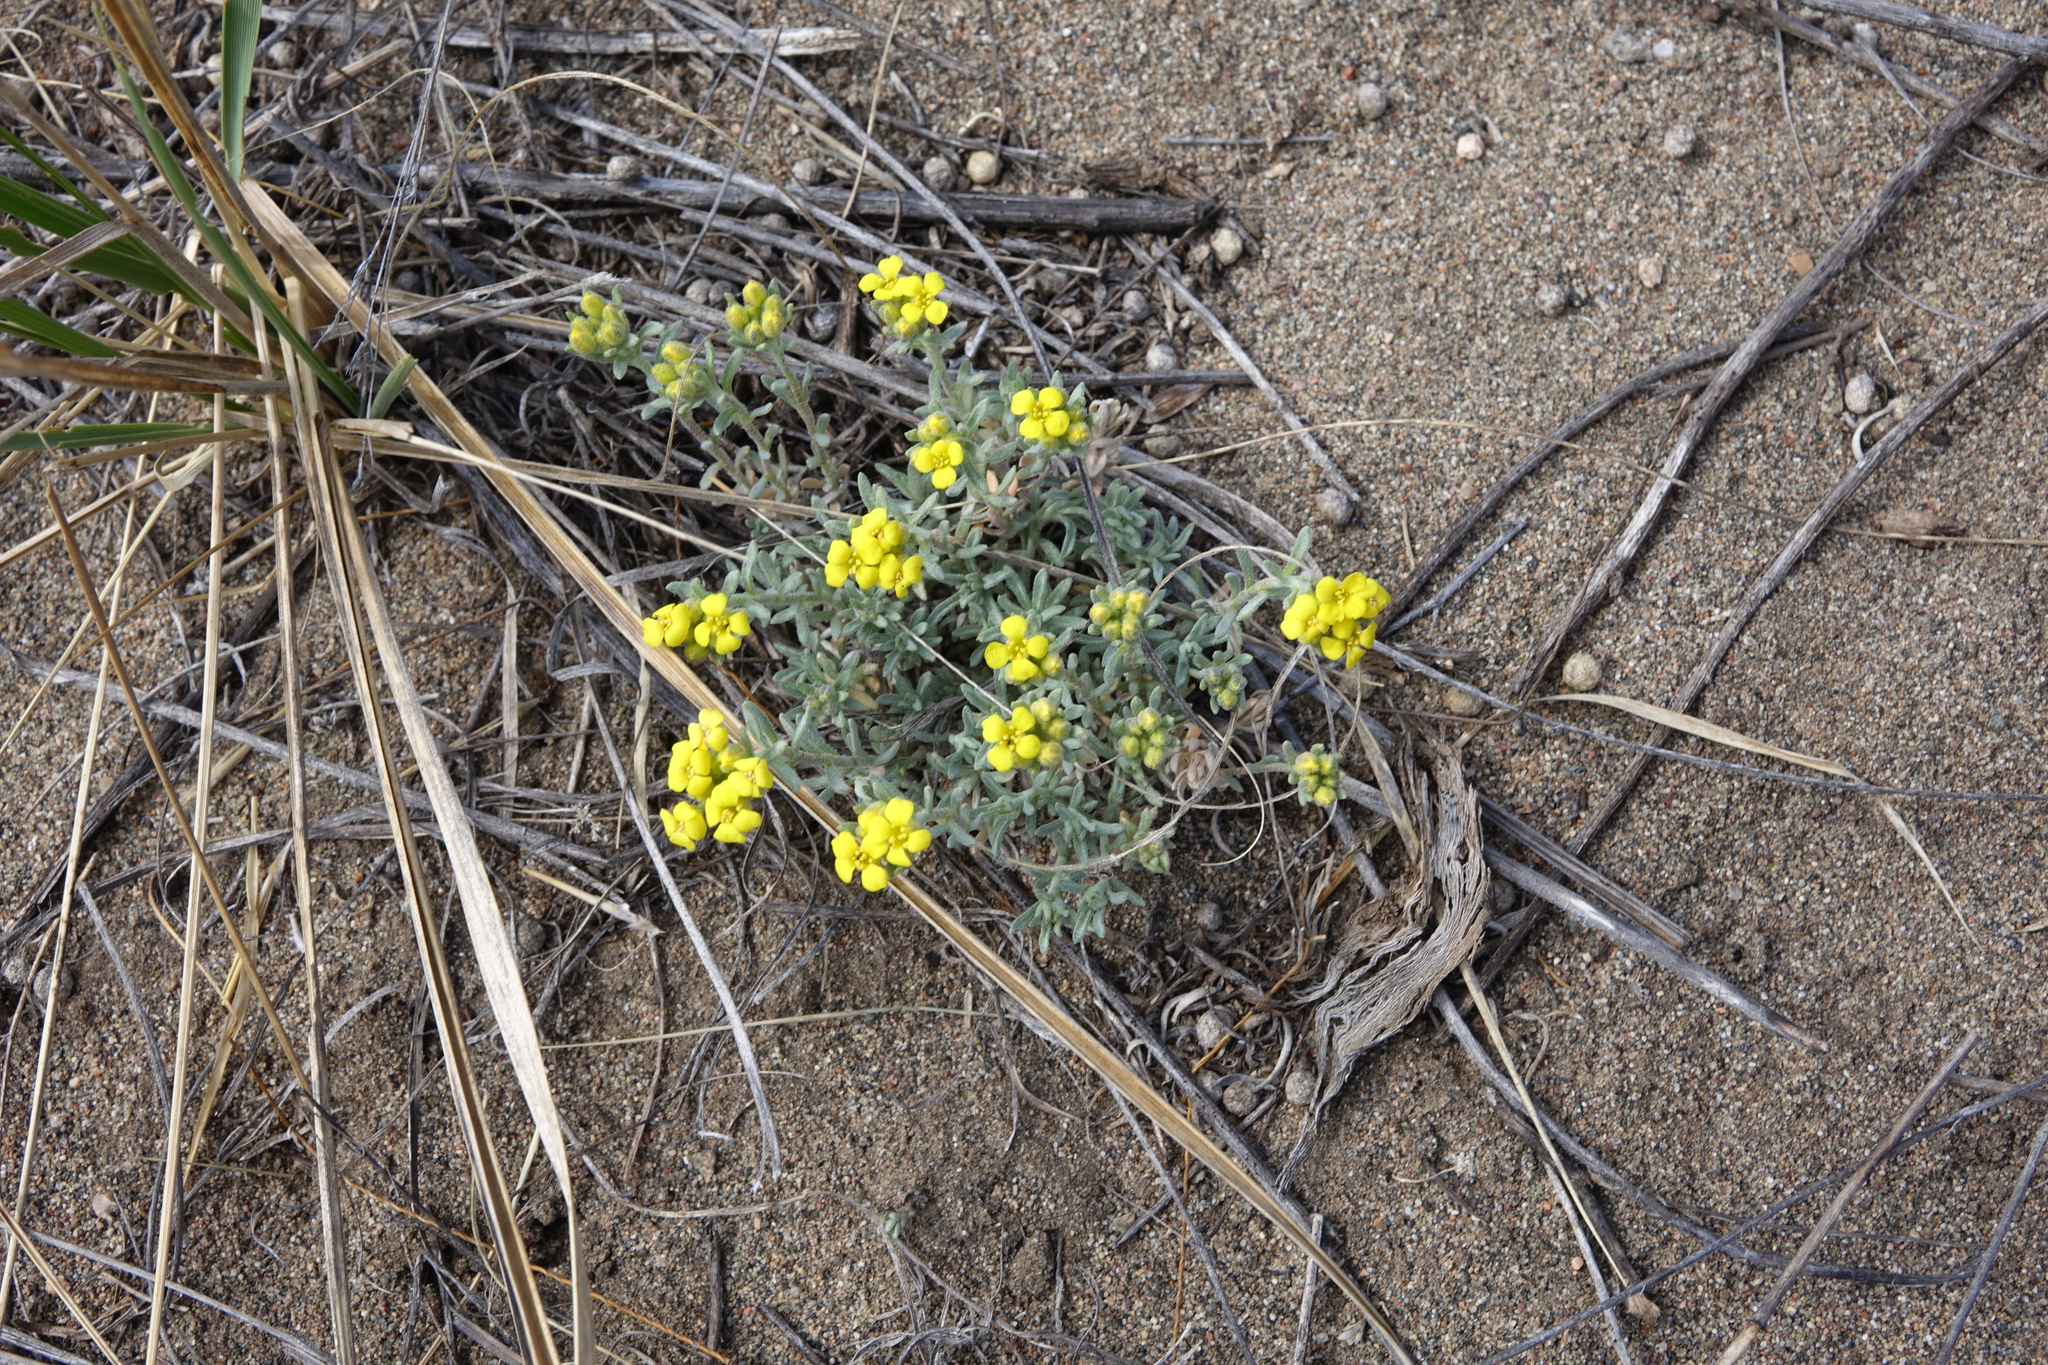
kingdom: Plantae
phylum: Tracheophyta
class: Magnoliopsida
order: Brassicales
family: Brassicaceae
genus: Alyssum
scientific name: Alyssum lenense
